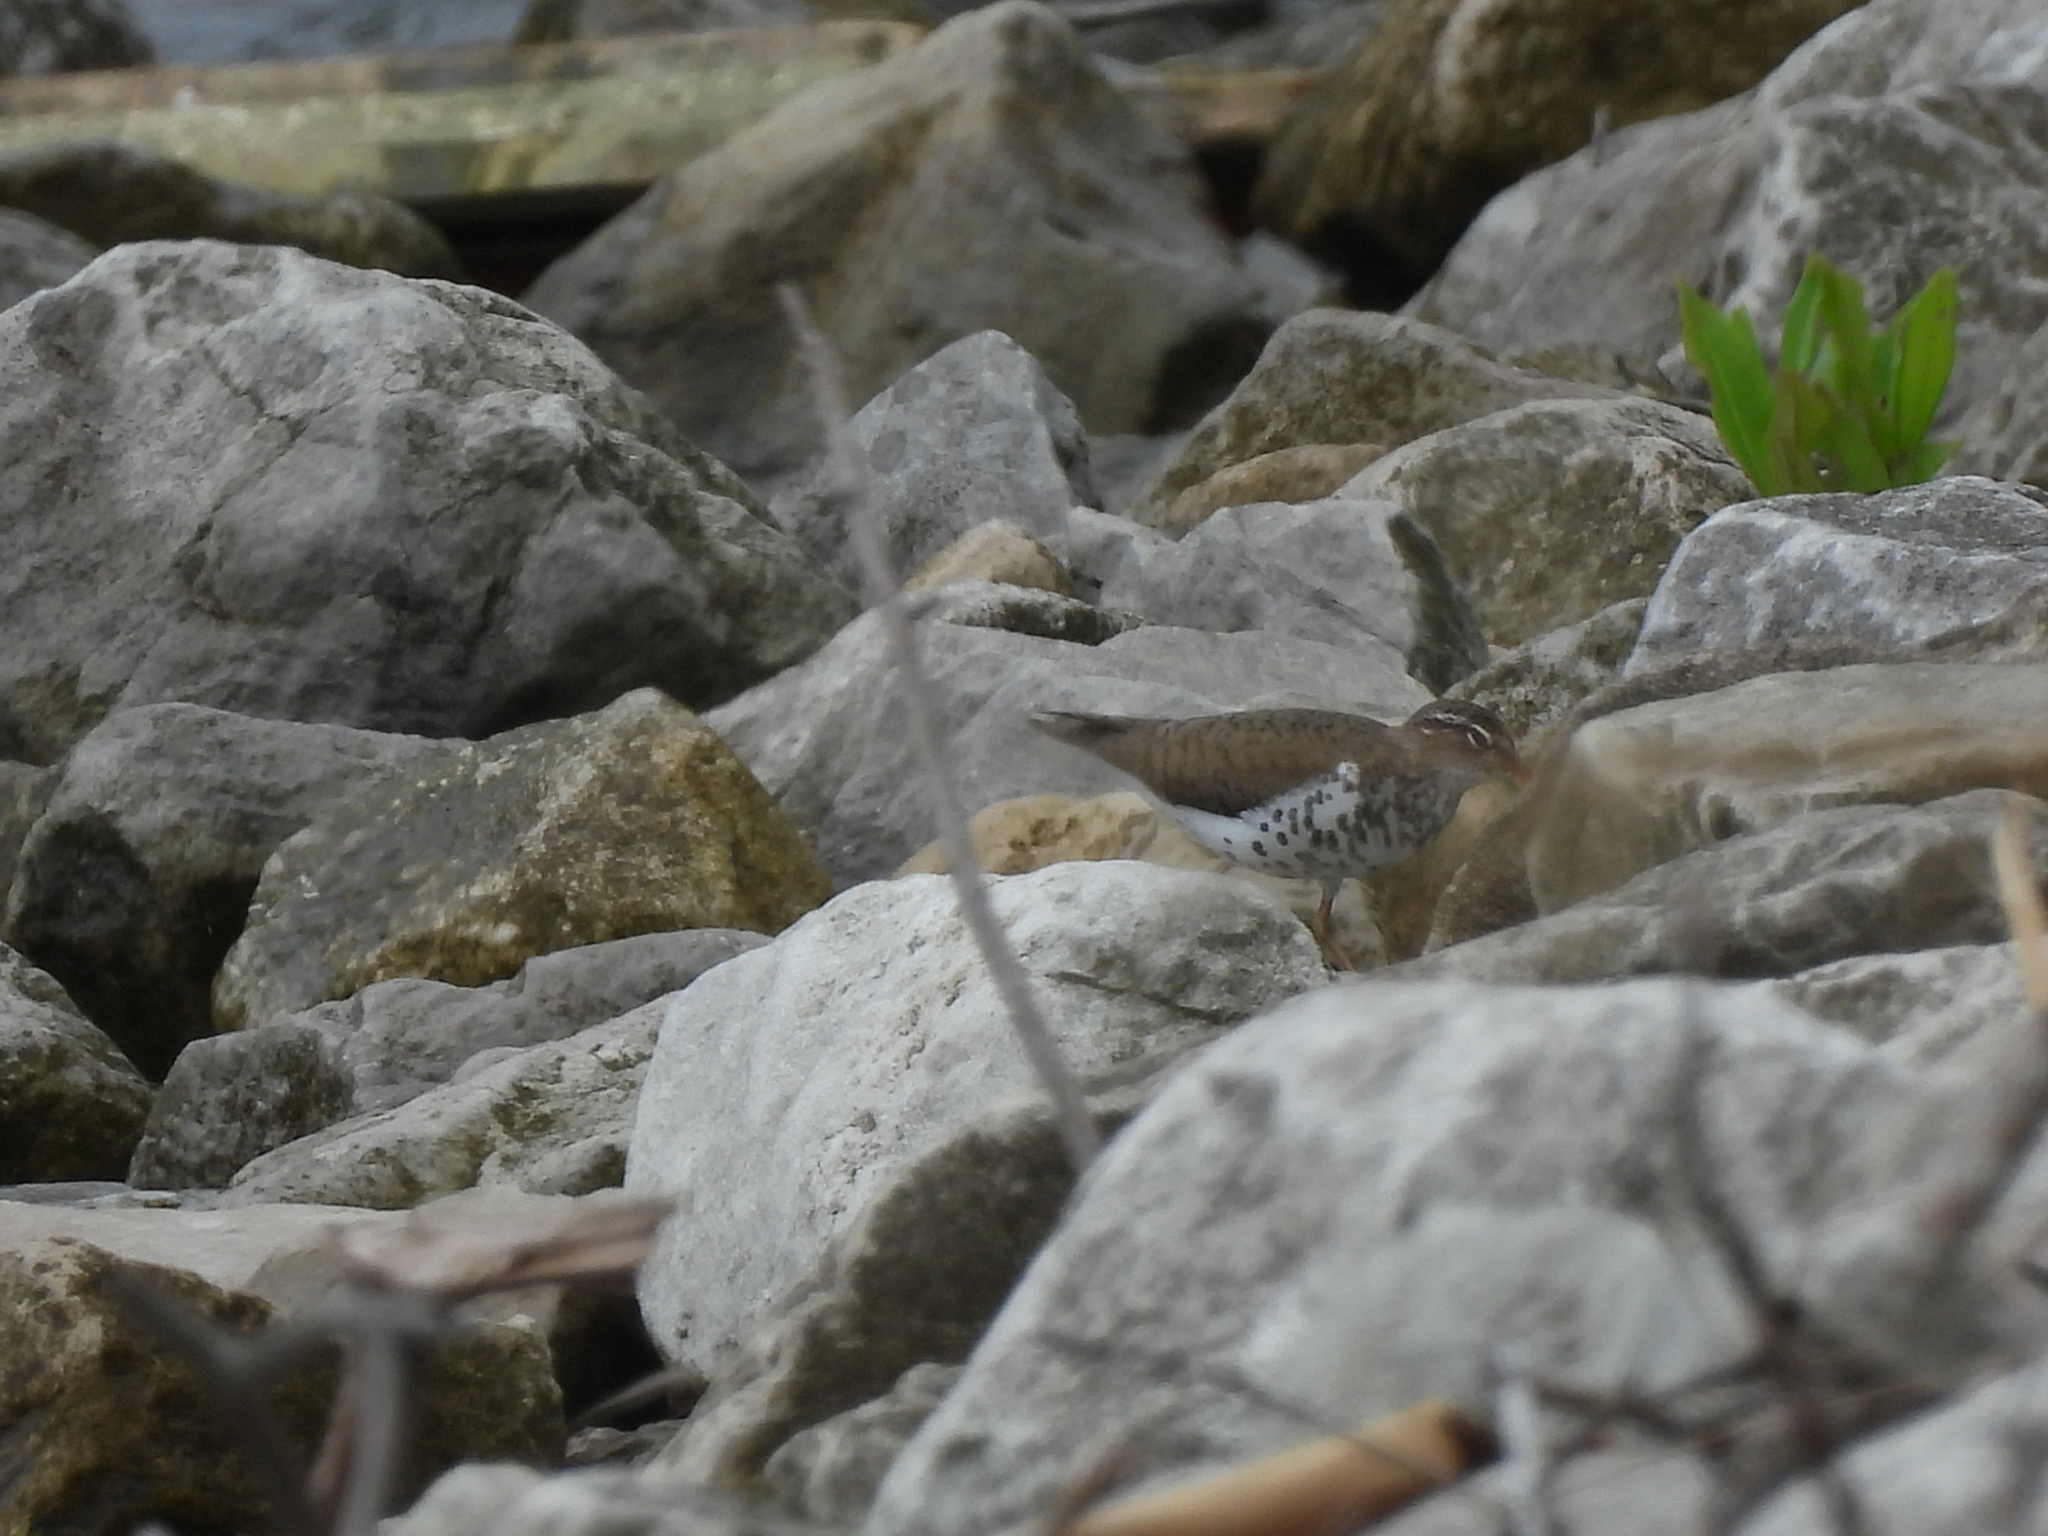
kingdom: Animalia
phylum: Chordata
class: Aves
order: Charadriiformes
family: Scolopacidae
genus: Actitis
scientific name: Actitis macularius
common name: Spotted sandpiper
